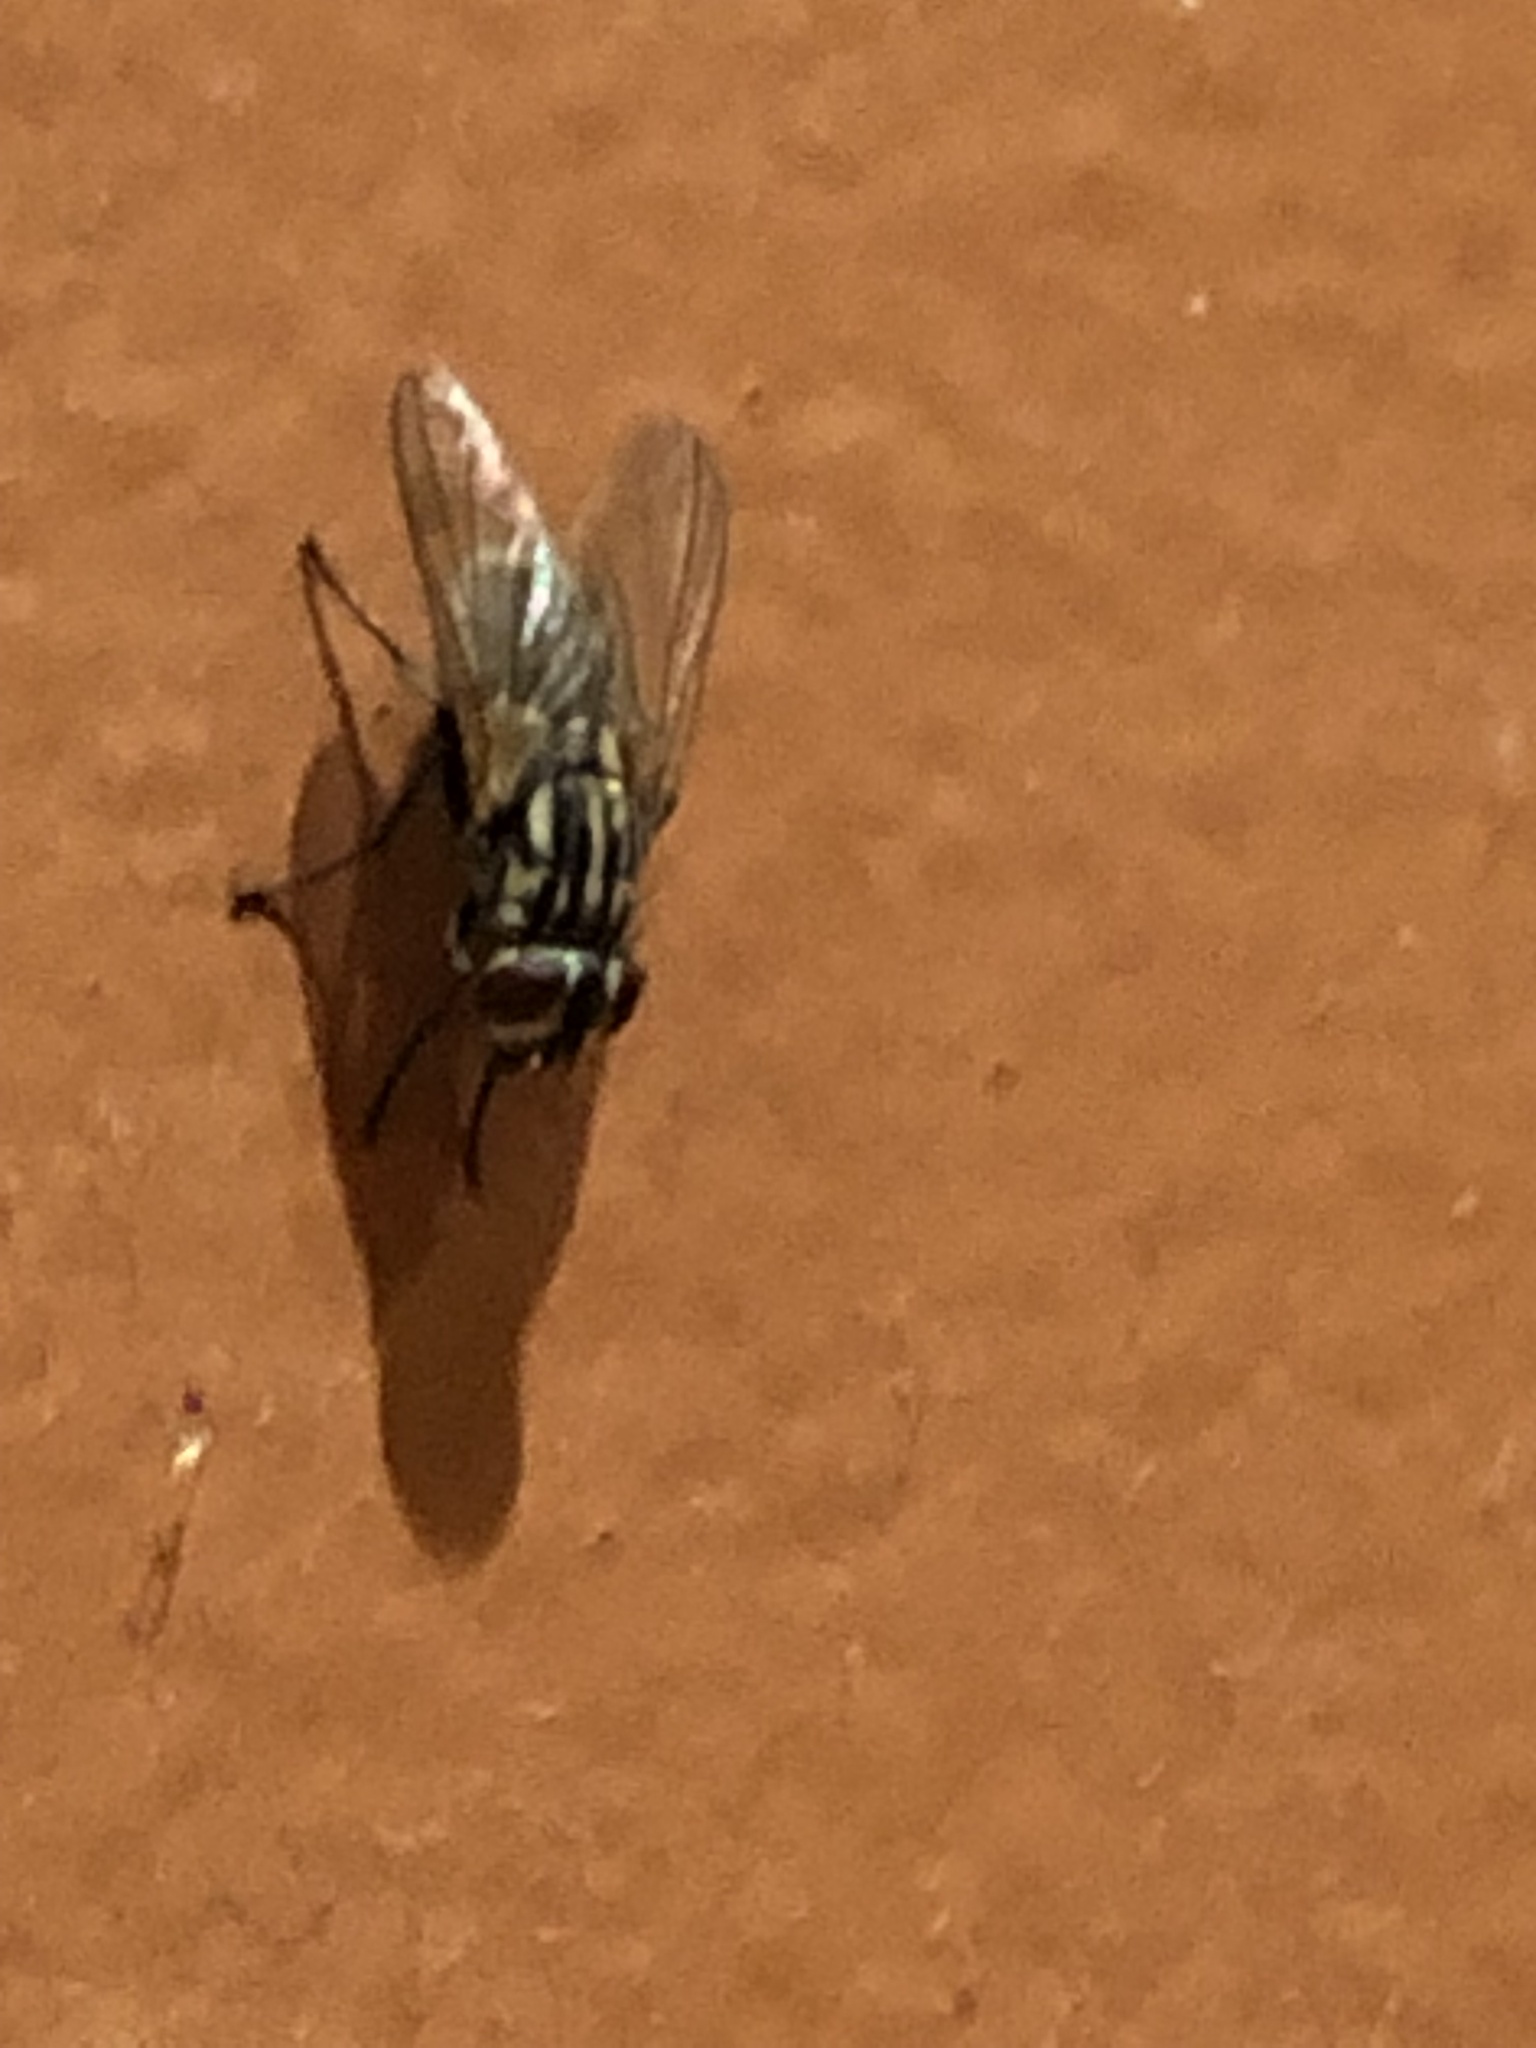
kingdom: Animalia
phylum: Arthropoda
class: Insecta
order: Diptera
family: Muscidae
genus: Musca
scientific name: Musca domestica
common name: House fly
